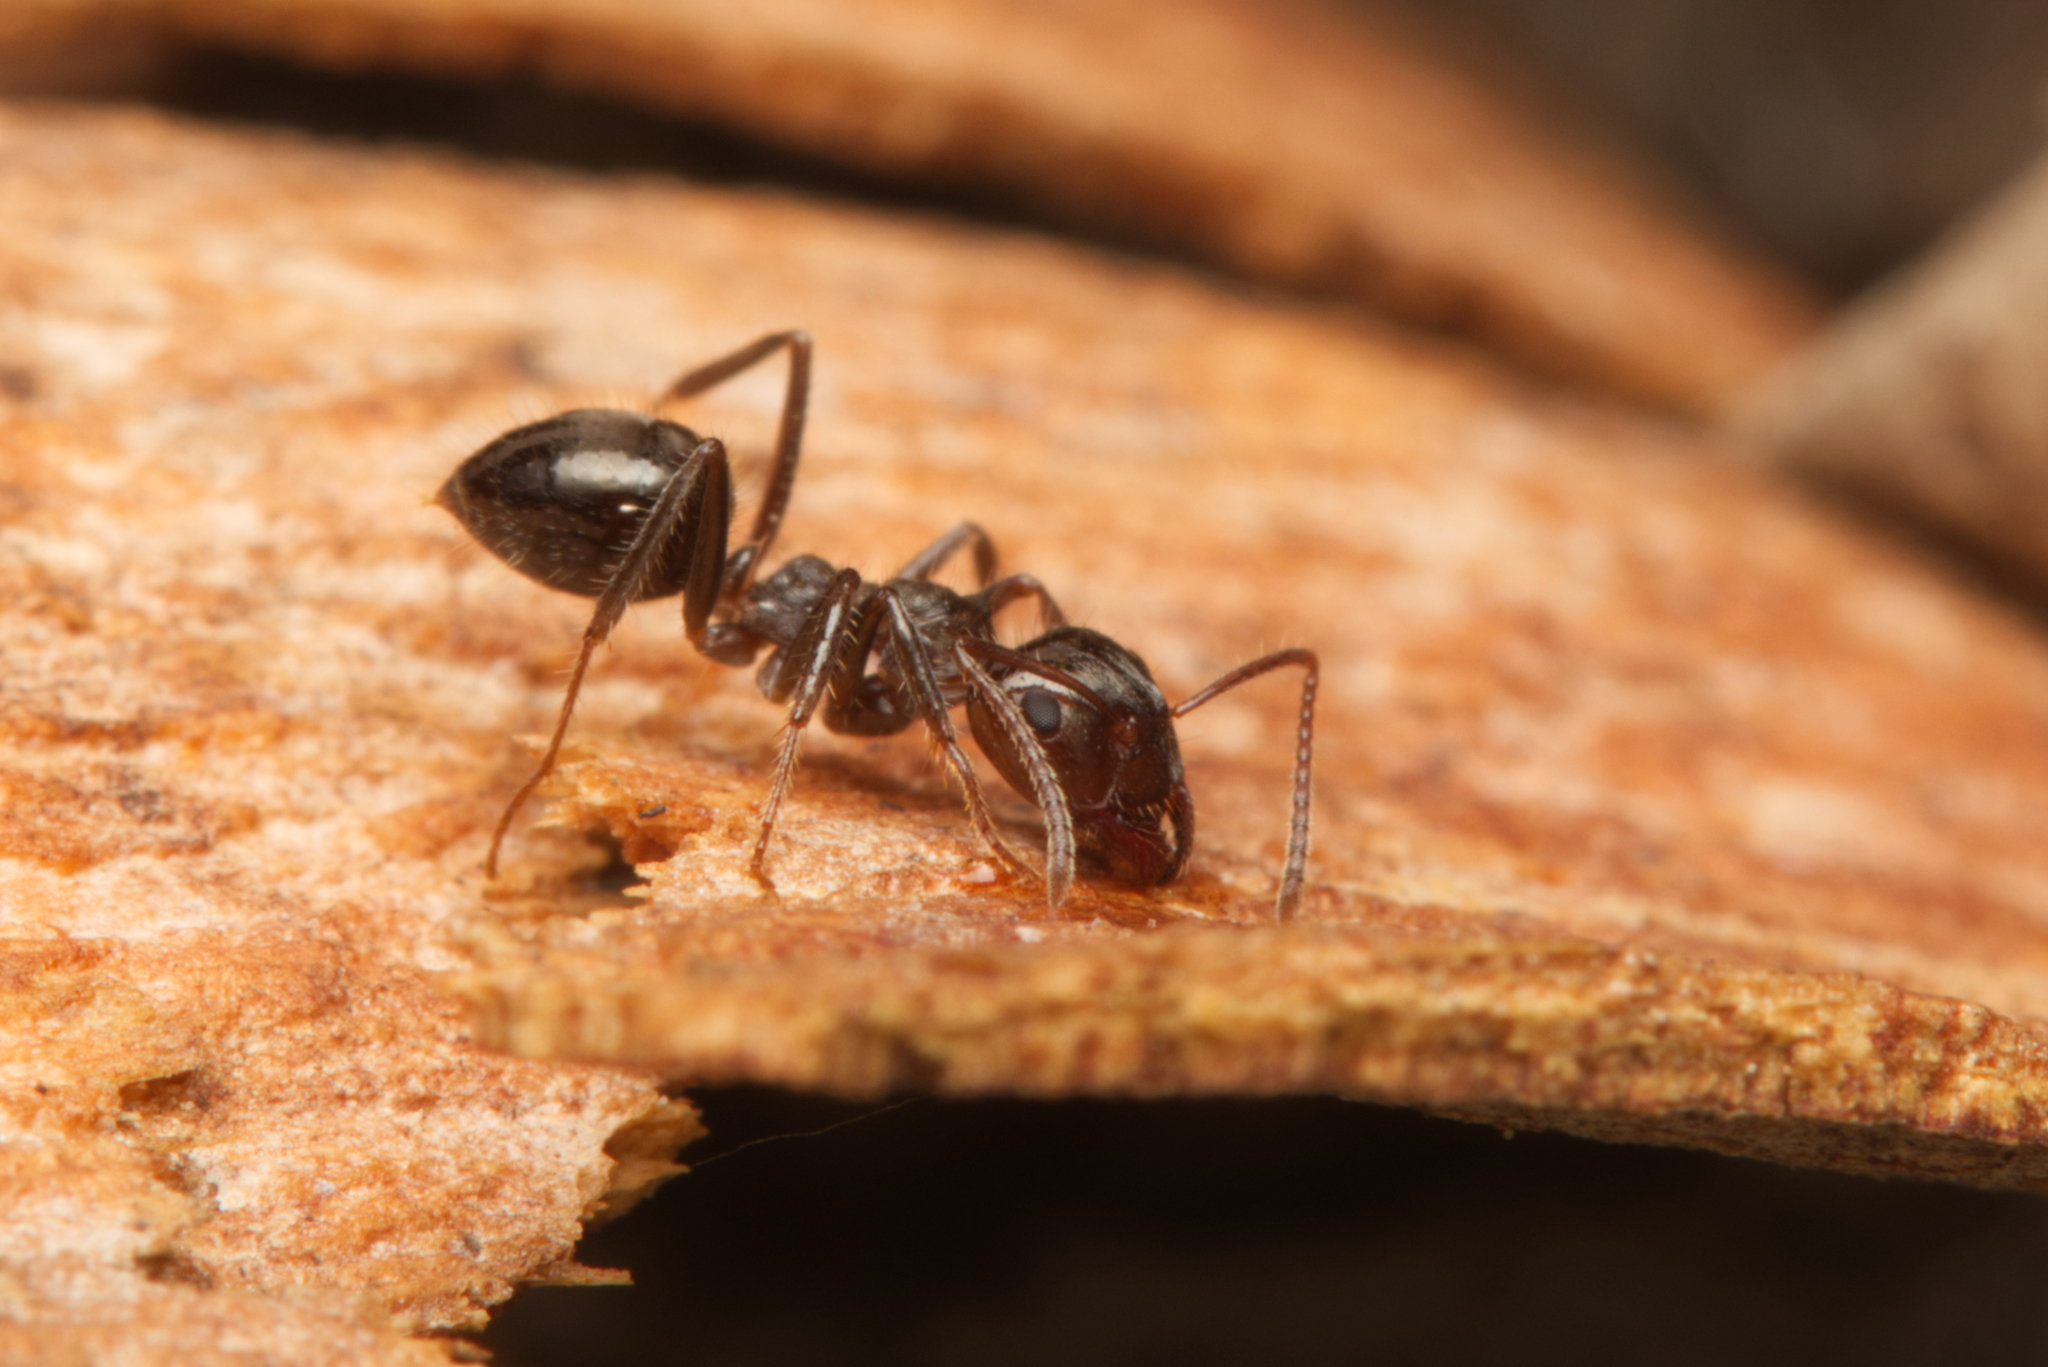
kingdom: Animalia
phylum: Arthropoda
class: Insecta
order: Hymenoptera
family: Formicidae
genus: Notoncus
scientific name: Notoncus capitatus
